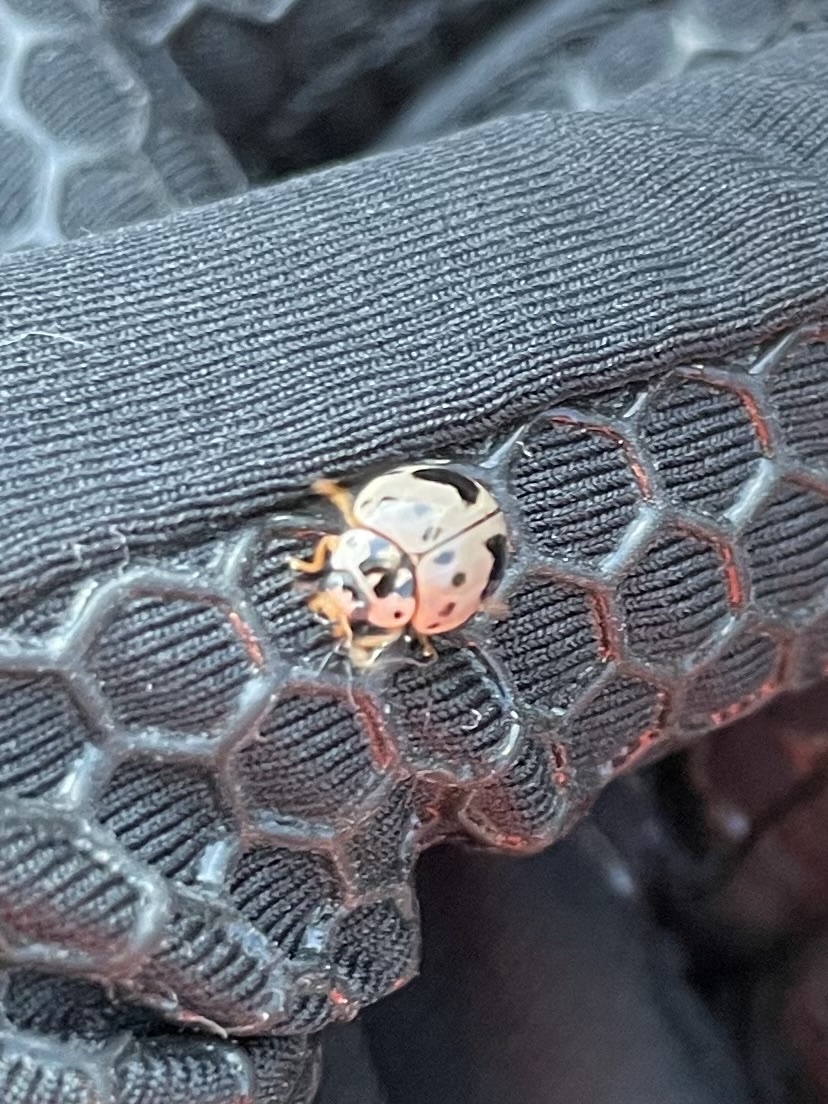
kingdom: Animalia
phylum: Arthropoda
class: Insecta
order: Coleoptera
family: Coccinellidae
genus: Olla
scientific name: Olla v-nigrum
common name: Ashy gray lady beetle
